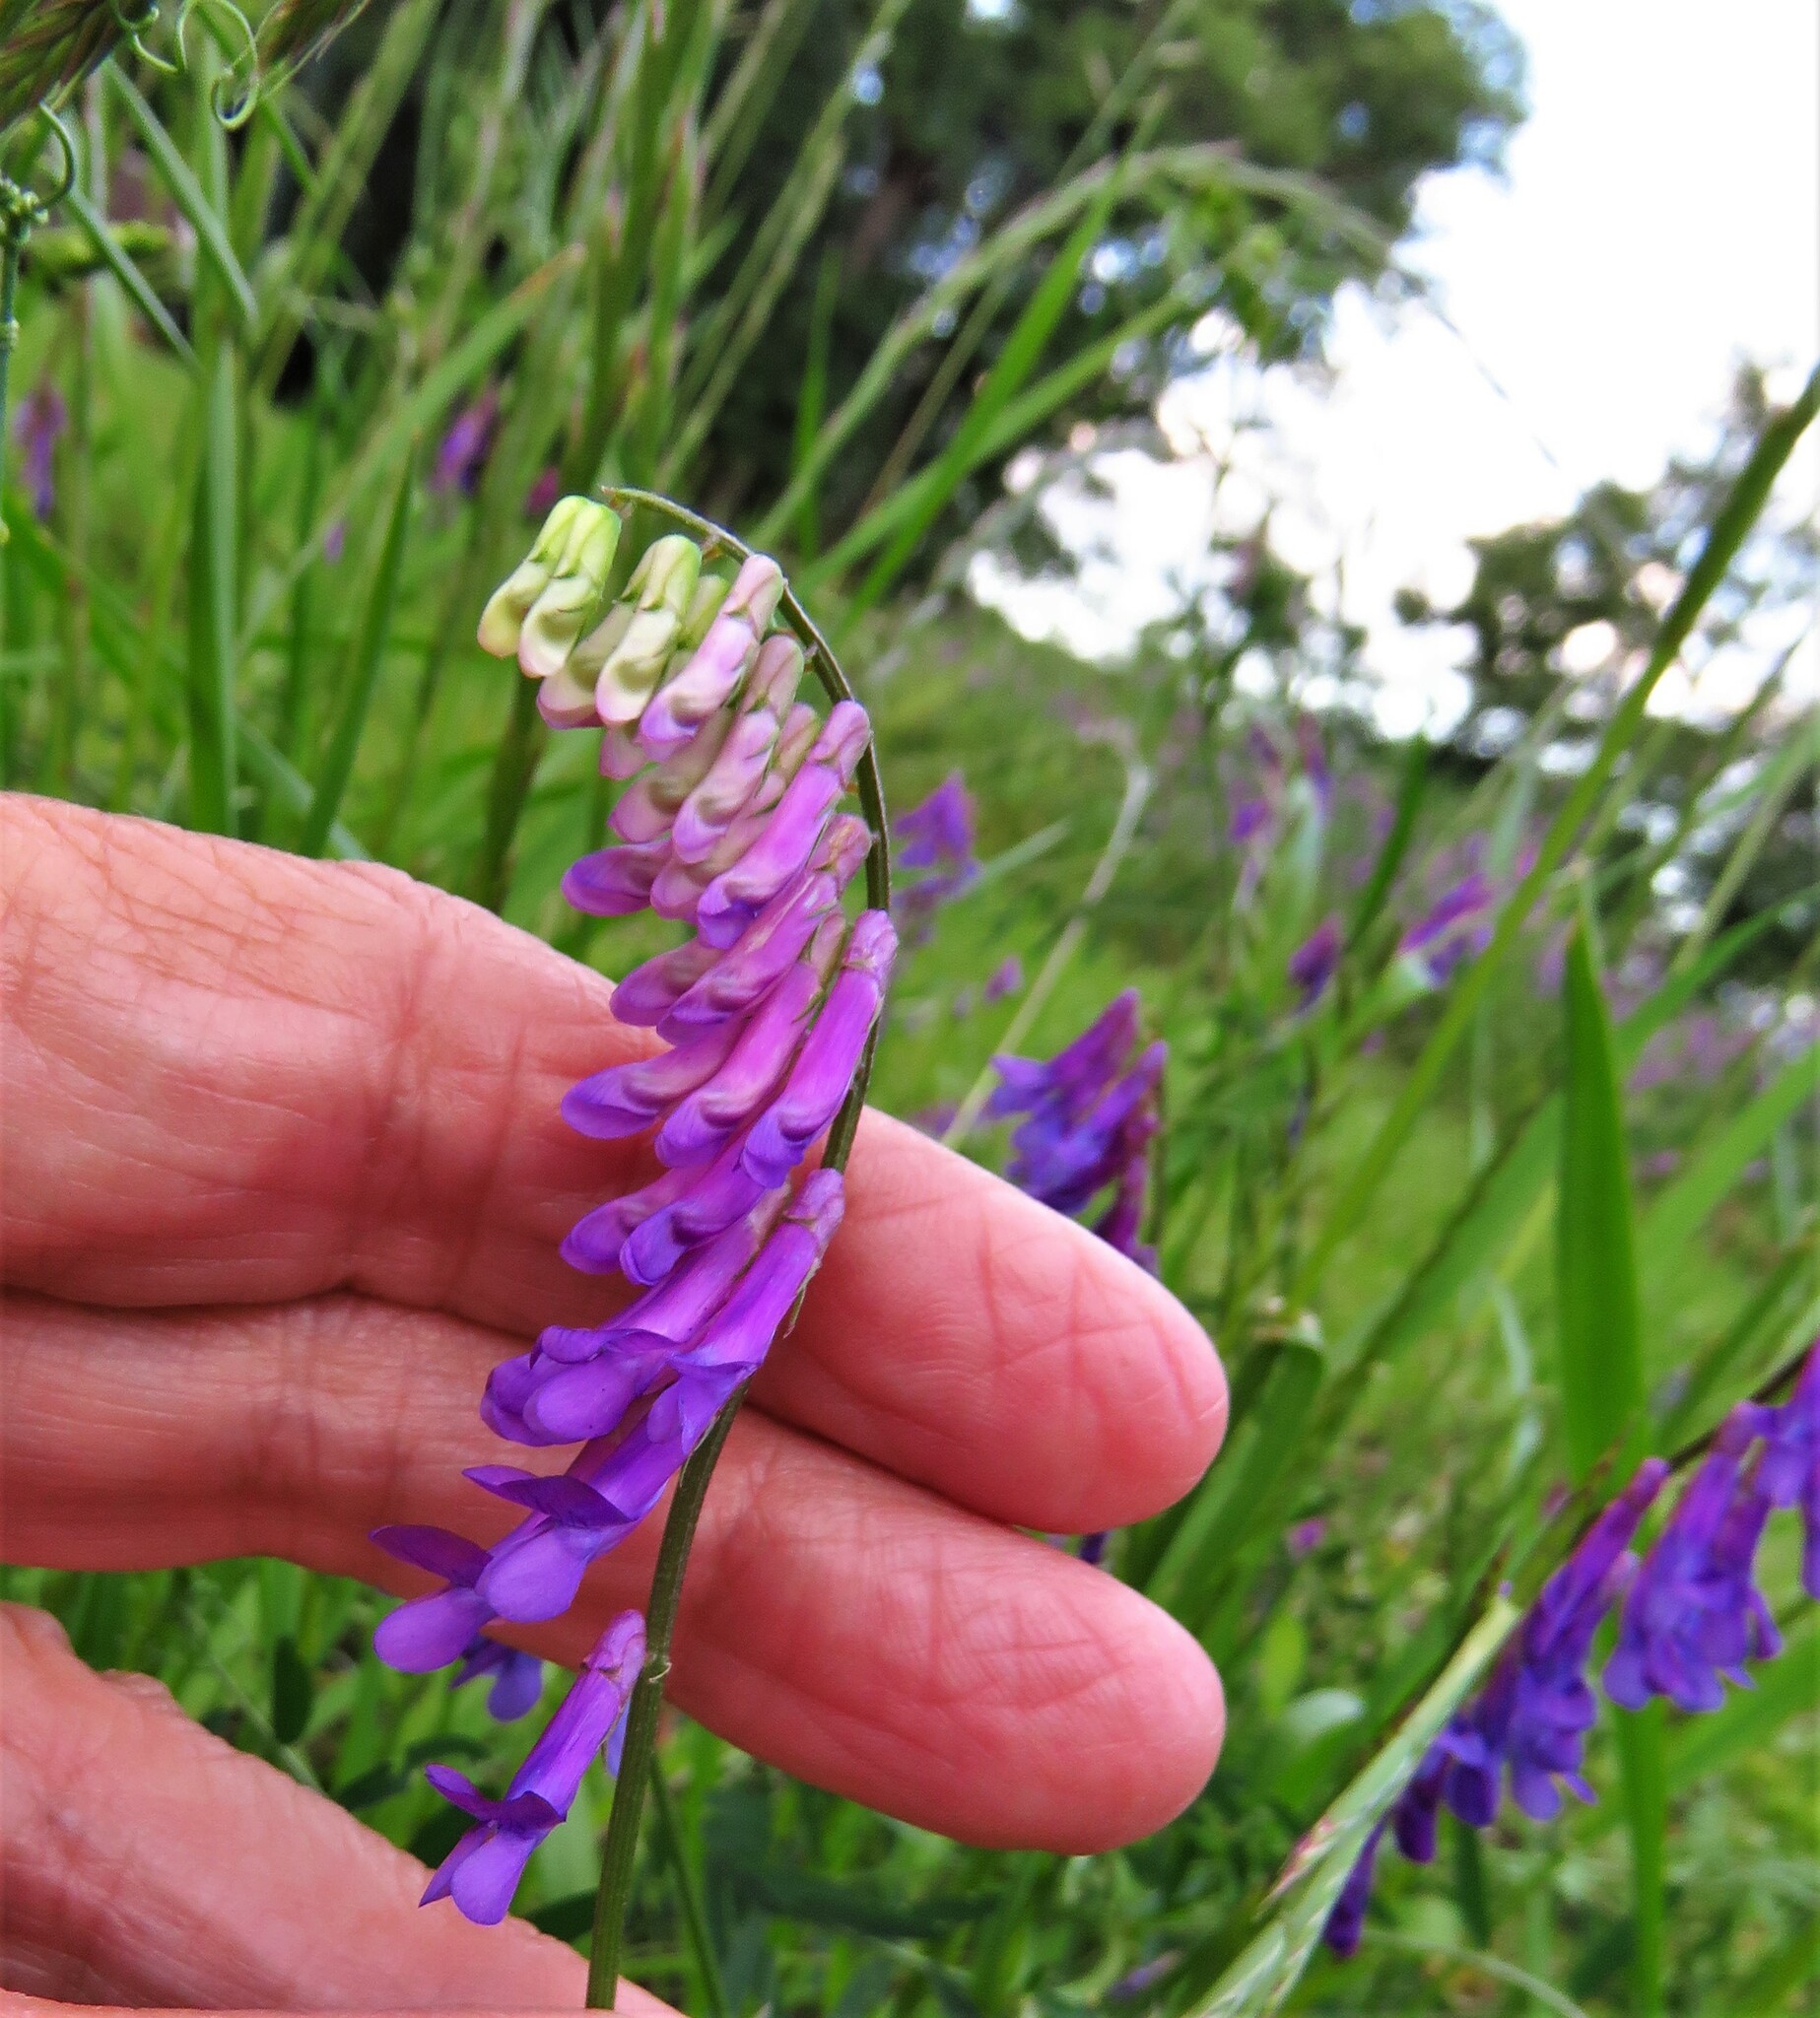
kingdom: Plantae
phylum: Tracheophyta
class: Magnoliopsida
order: Fabales
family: Fabaceae
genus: Vicia
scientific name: Vicia villosa
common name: Fodder vetch
